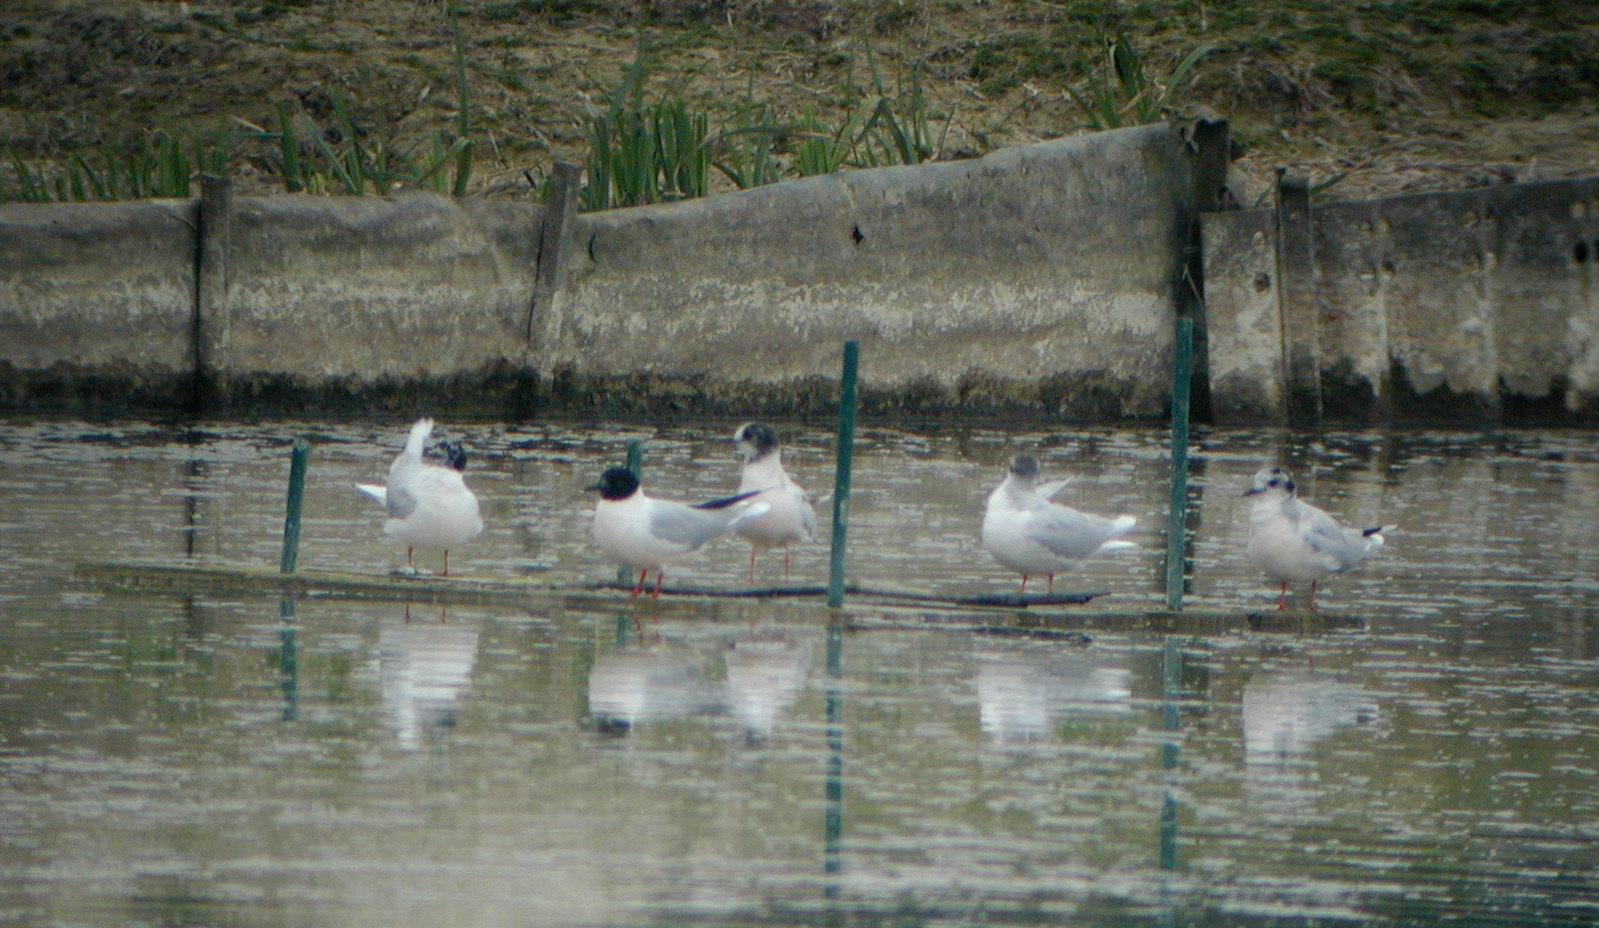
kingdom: Animalia
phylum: Chordata
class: Aves
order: Charadriiformes
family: Laridae
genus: Hydrocoloeus
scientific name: Hydrocoloeus minutus
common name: Little gull
